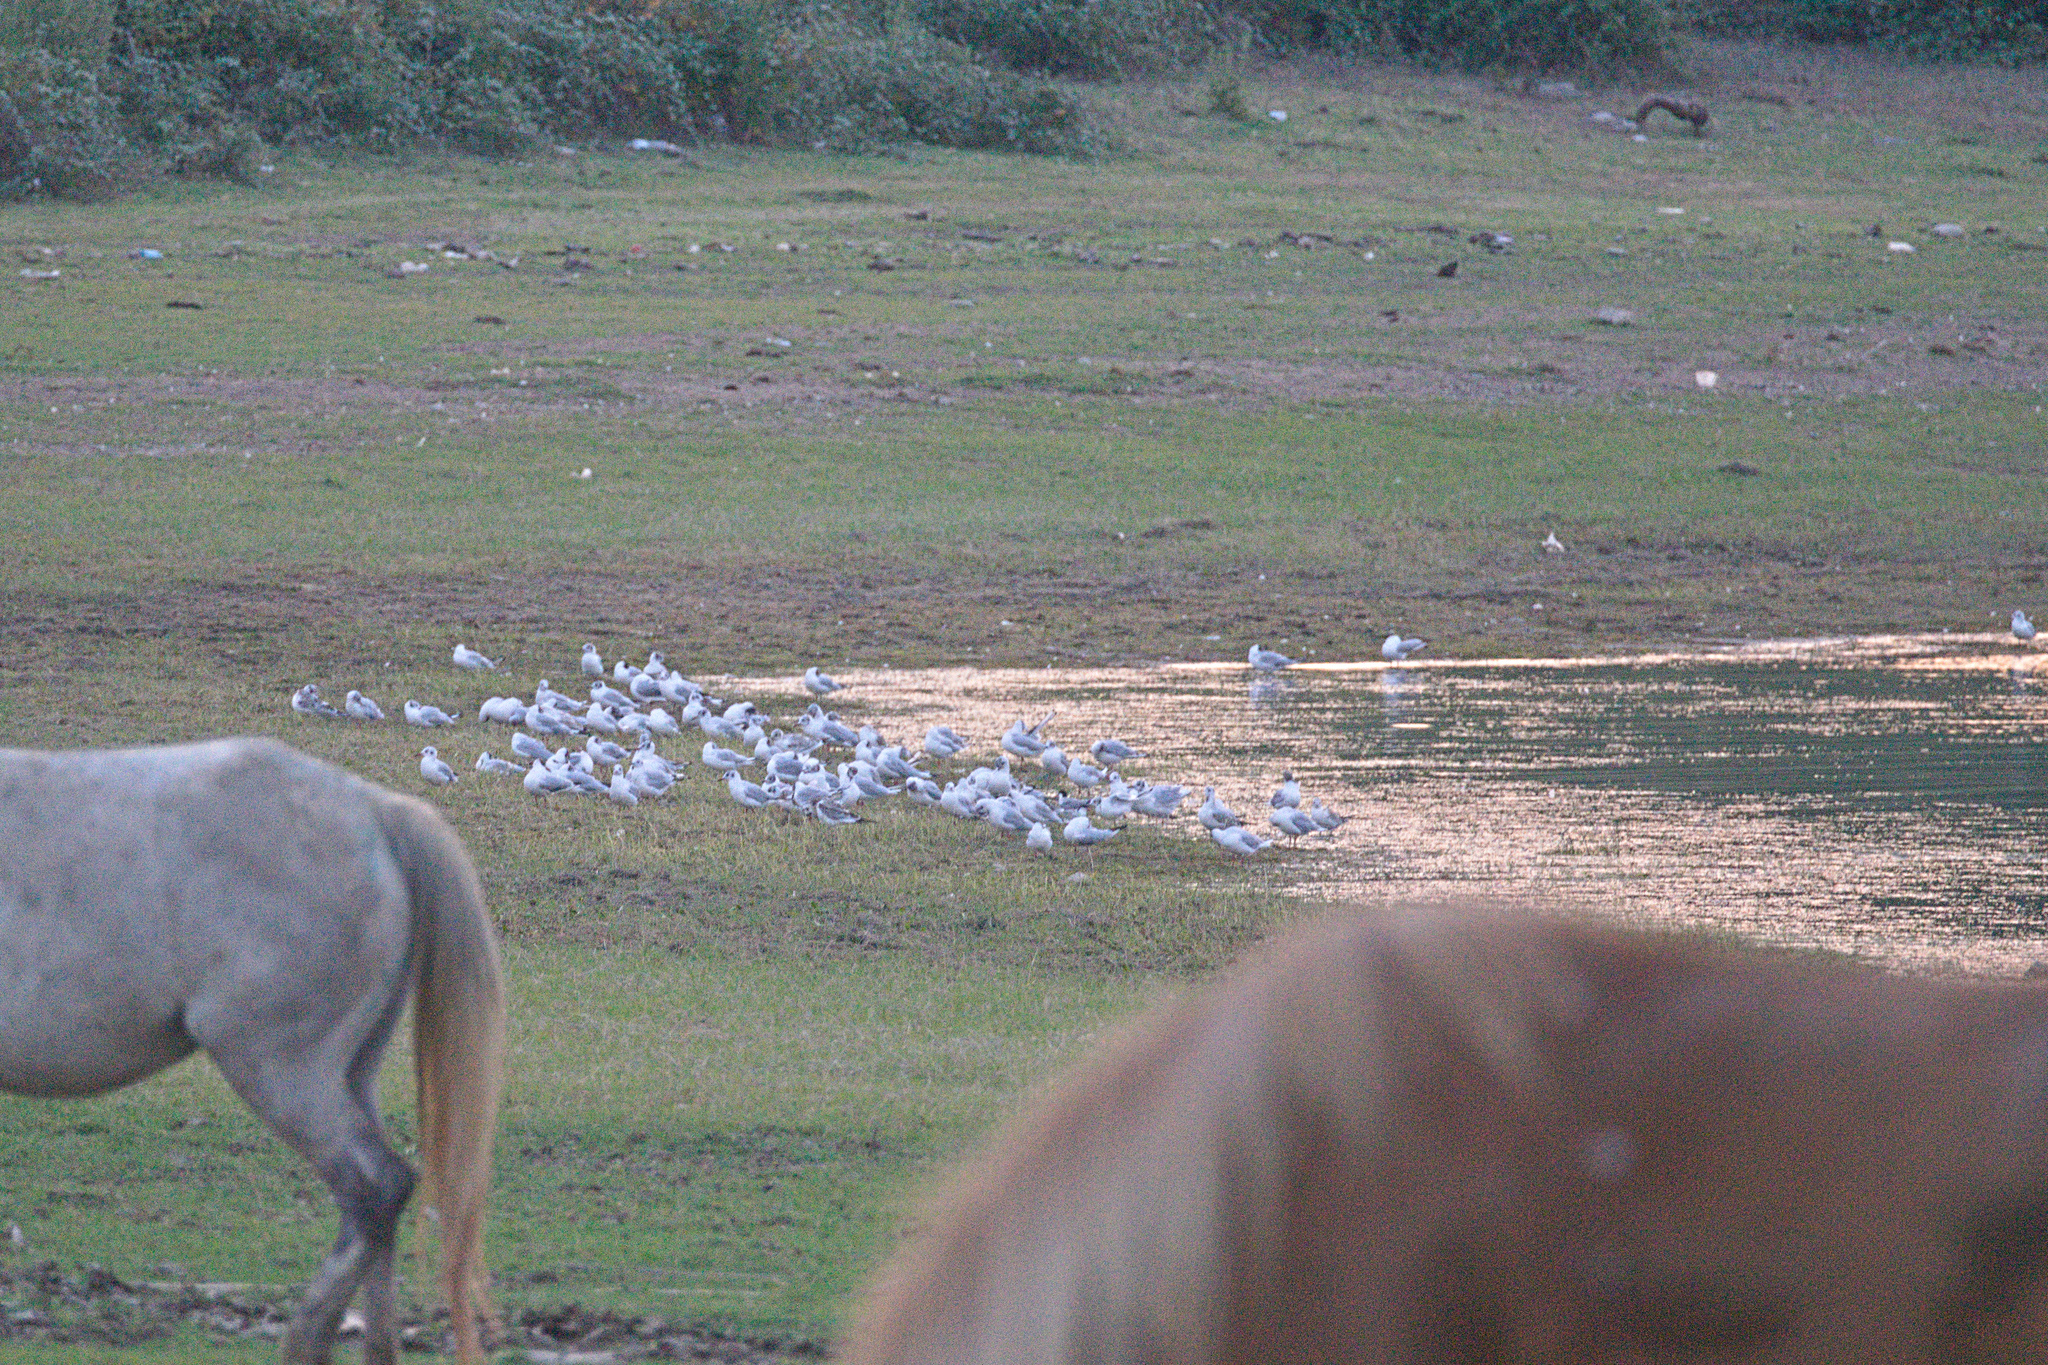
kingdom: Animalia
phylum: Chordata
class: Aves
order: Charadriiformes
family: Laridae
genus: Chroicocephalus
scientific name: Chroicocephalus ridibundus
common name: Black-headed gull
